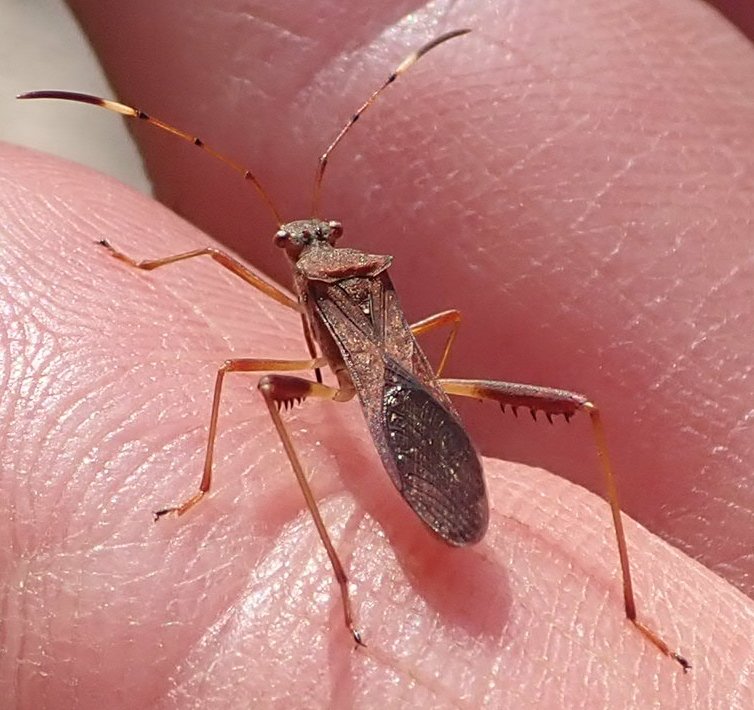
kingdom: Animalia
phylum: Arthropoda
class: Insecta
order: Hemiptera
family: Alydidae
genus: Megalotomus
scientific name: Megalotomus quinquespinosus
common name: Lupine bug
